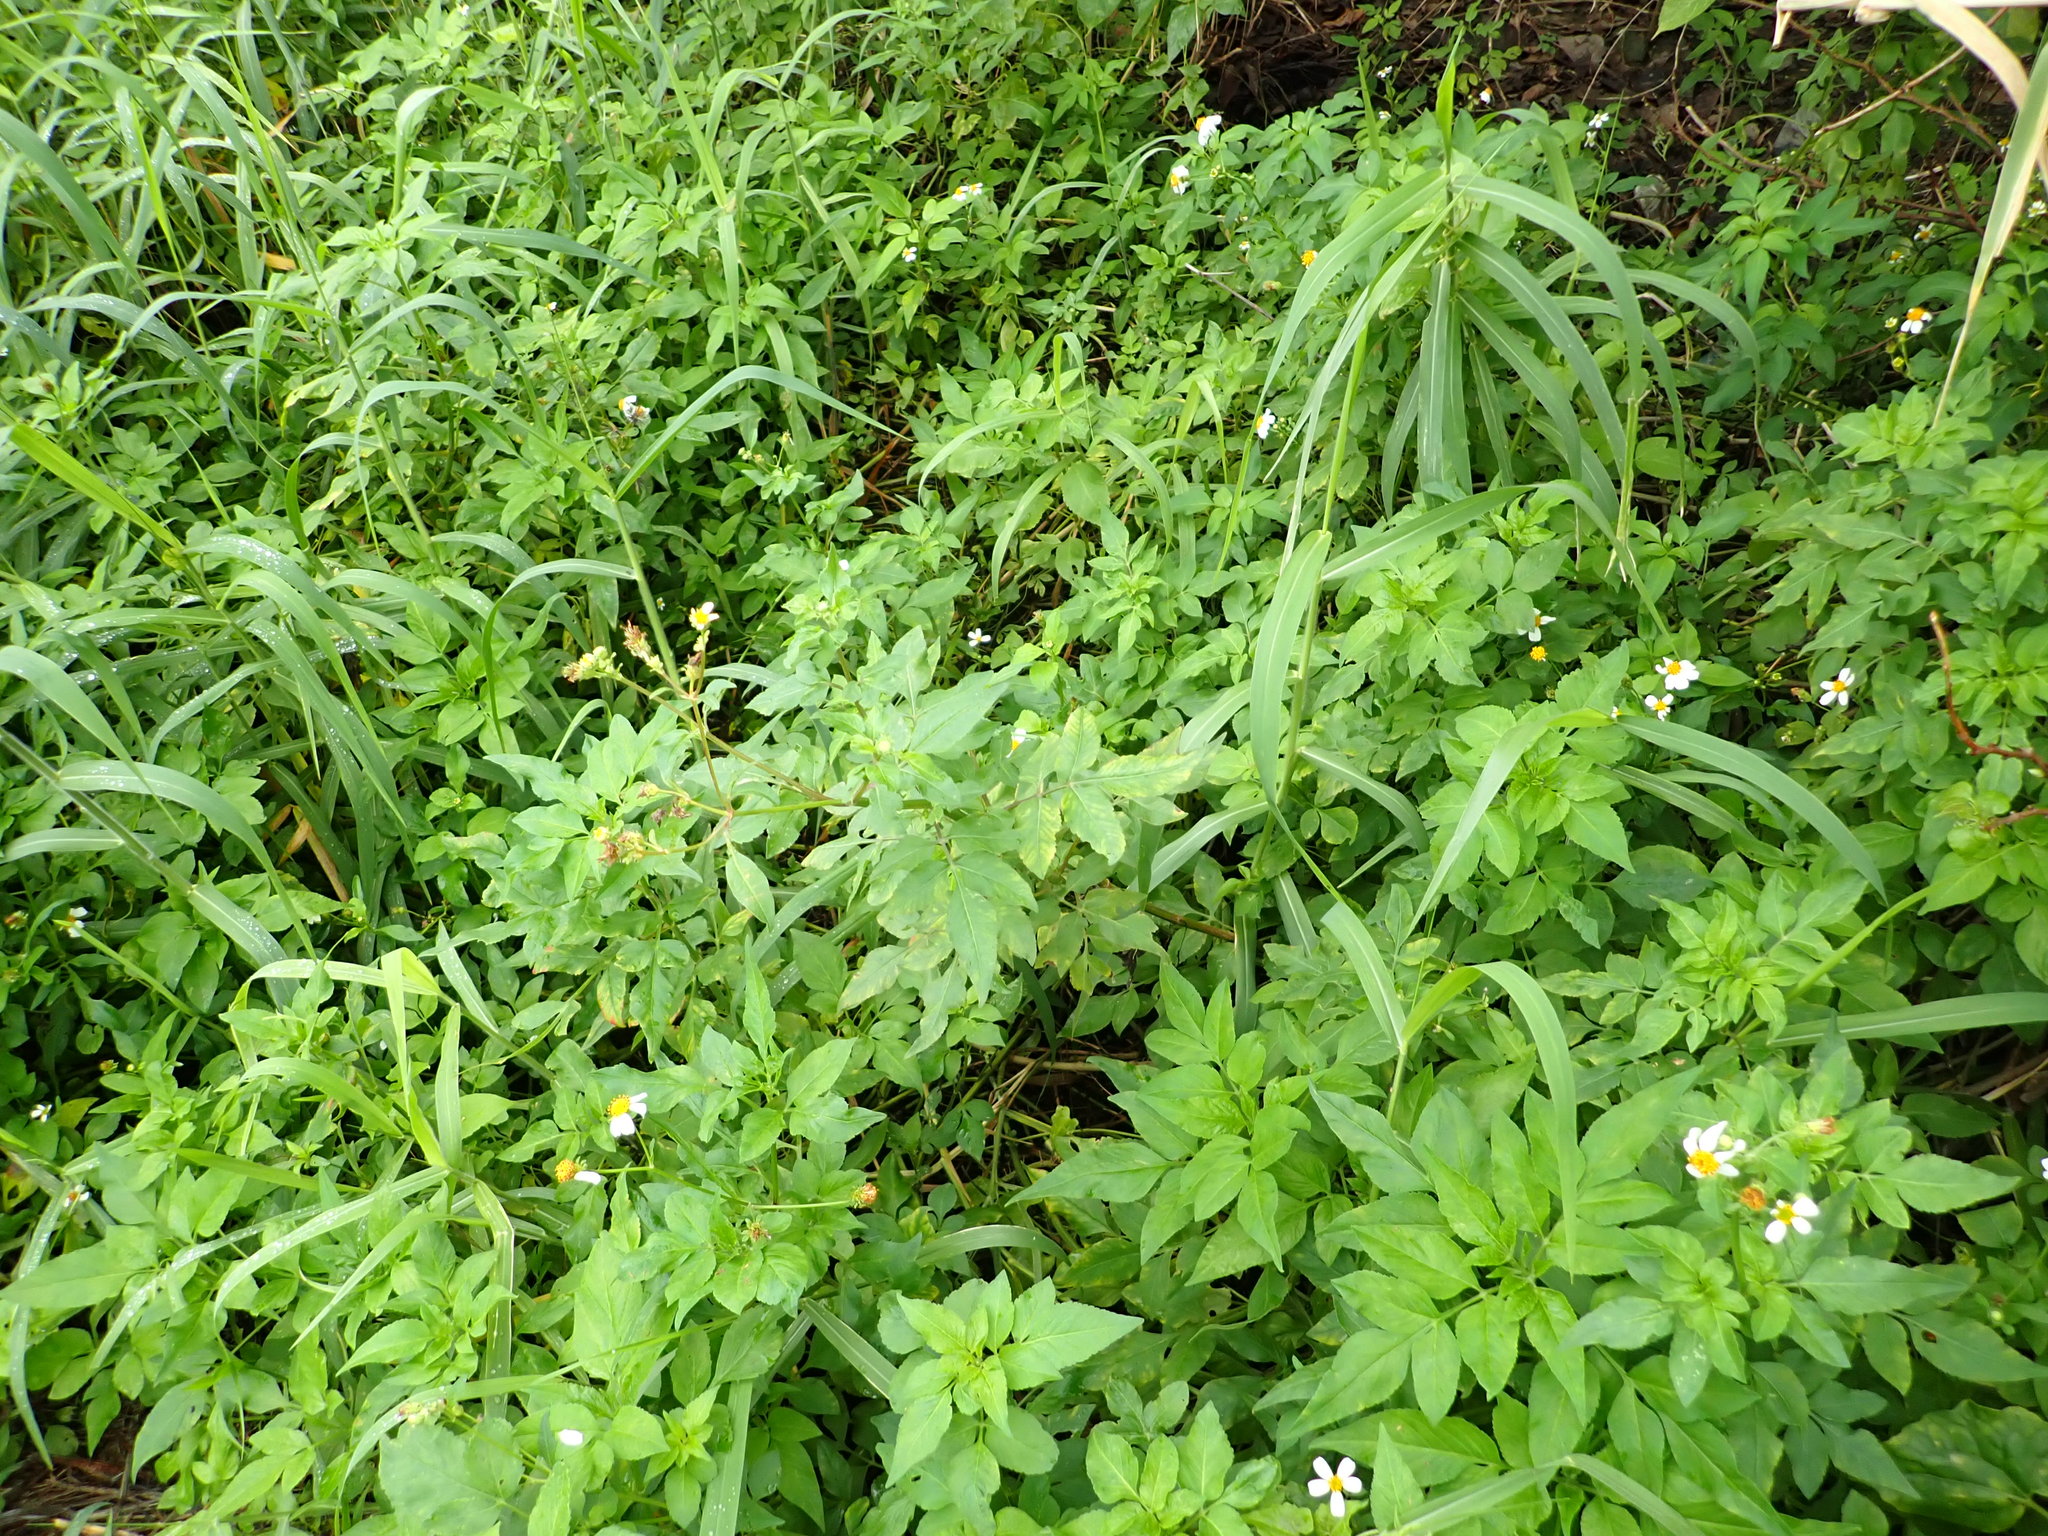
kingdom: Plantae
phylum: Tracheophyta
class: Magnoliopsida
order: Asterales
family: Asteraceae
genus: Bidens
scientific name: Bidens alba
